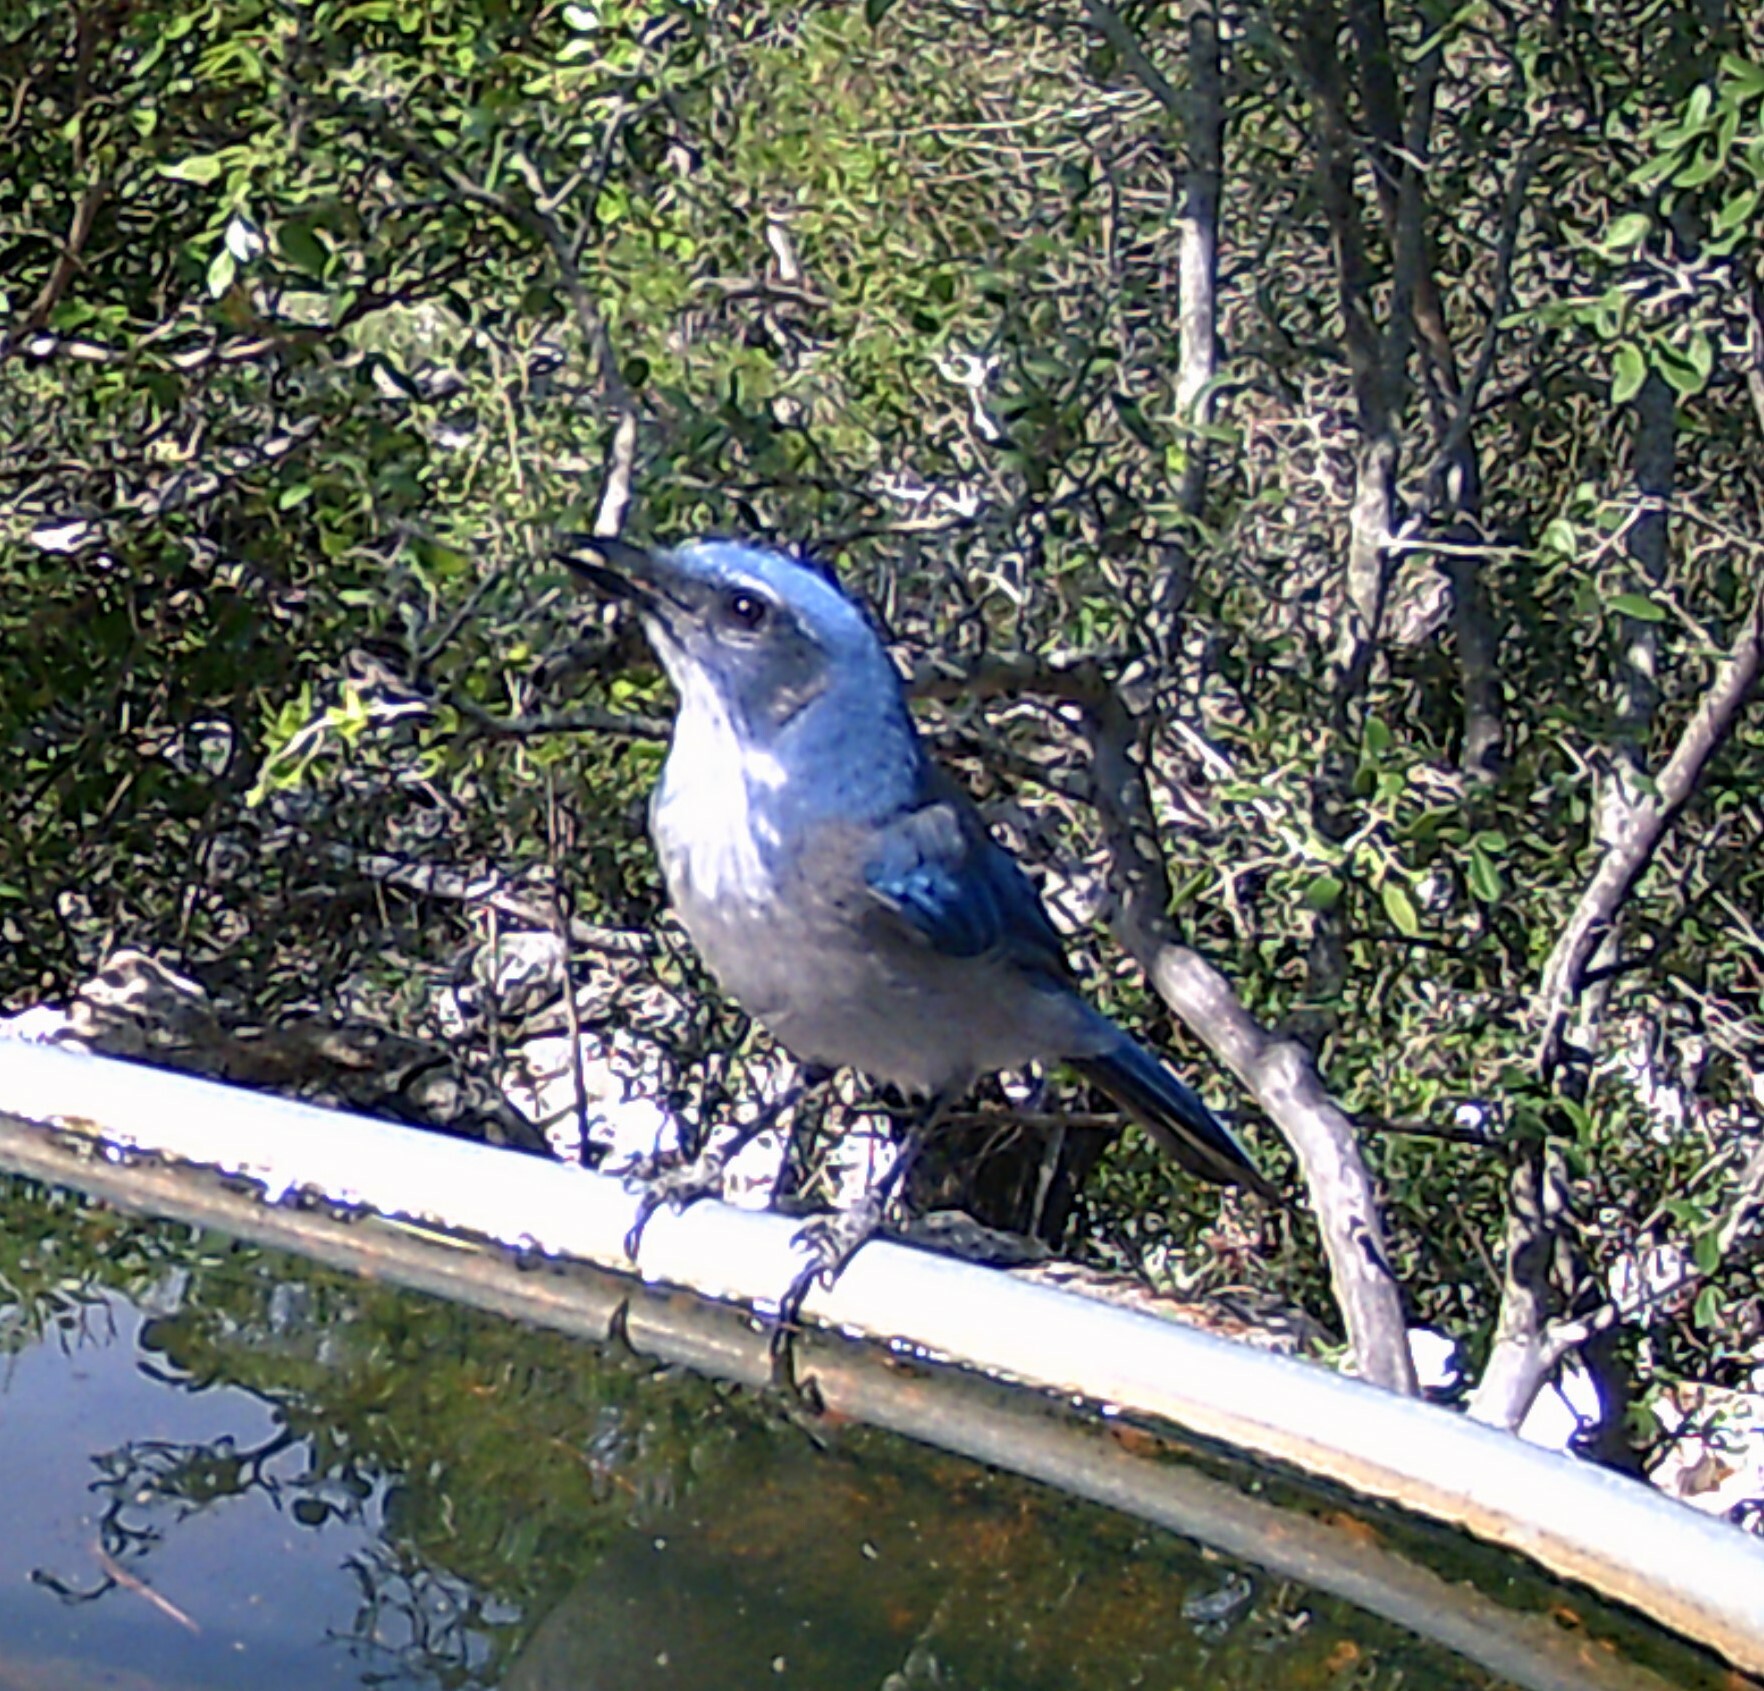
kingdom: Animalia
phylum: Chordata
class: Aves
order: Passeriformes
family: Corvidae
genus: Aphelocoma
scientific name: Aphelocoma woodhouseii
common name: Woodhouse's scrub-jay
